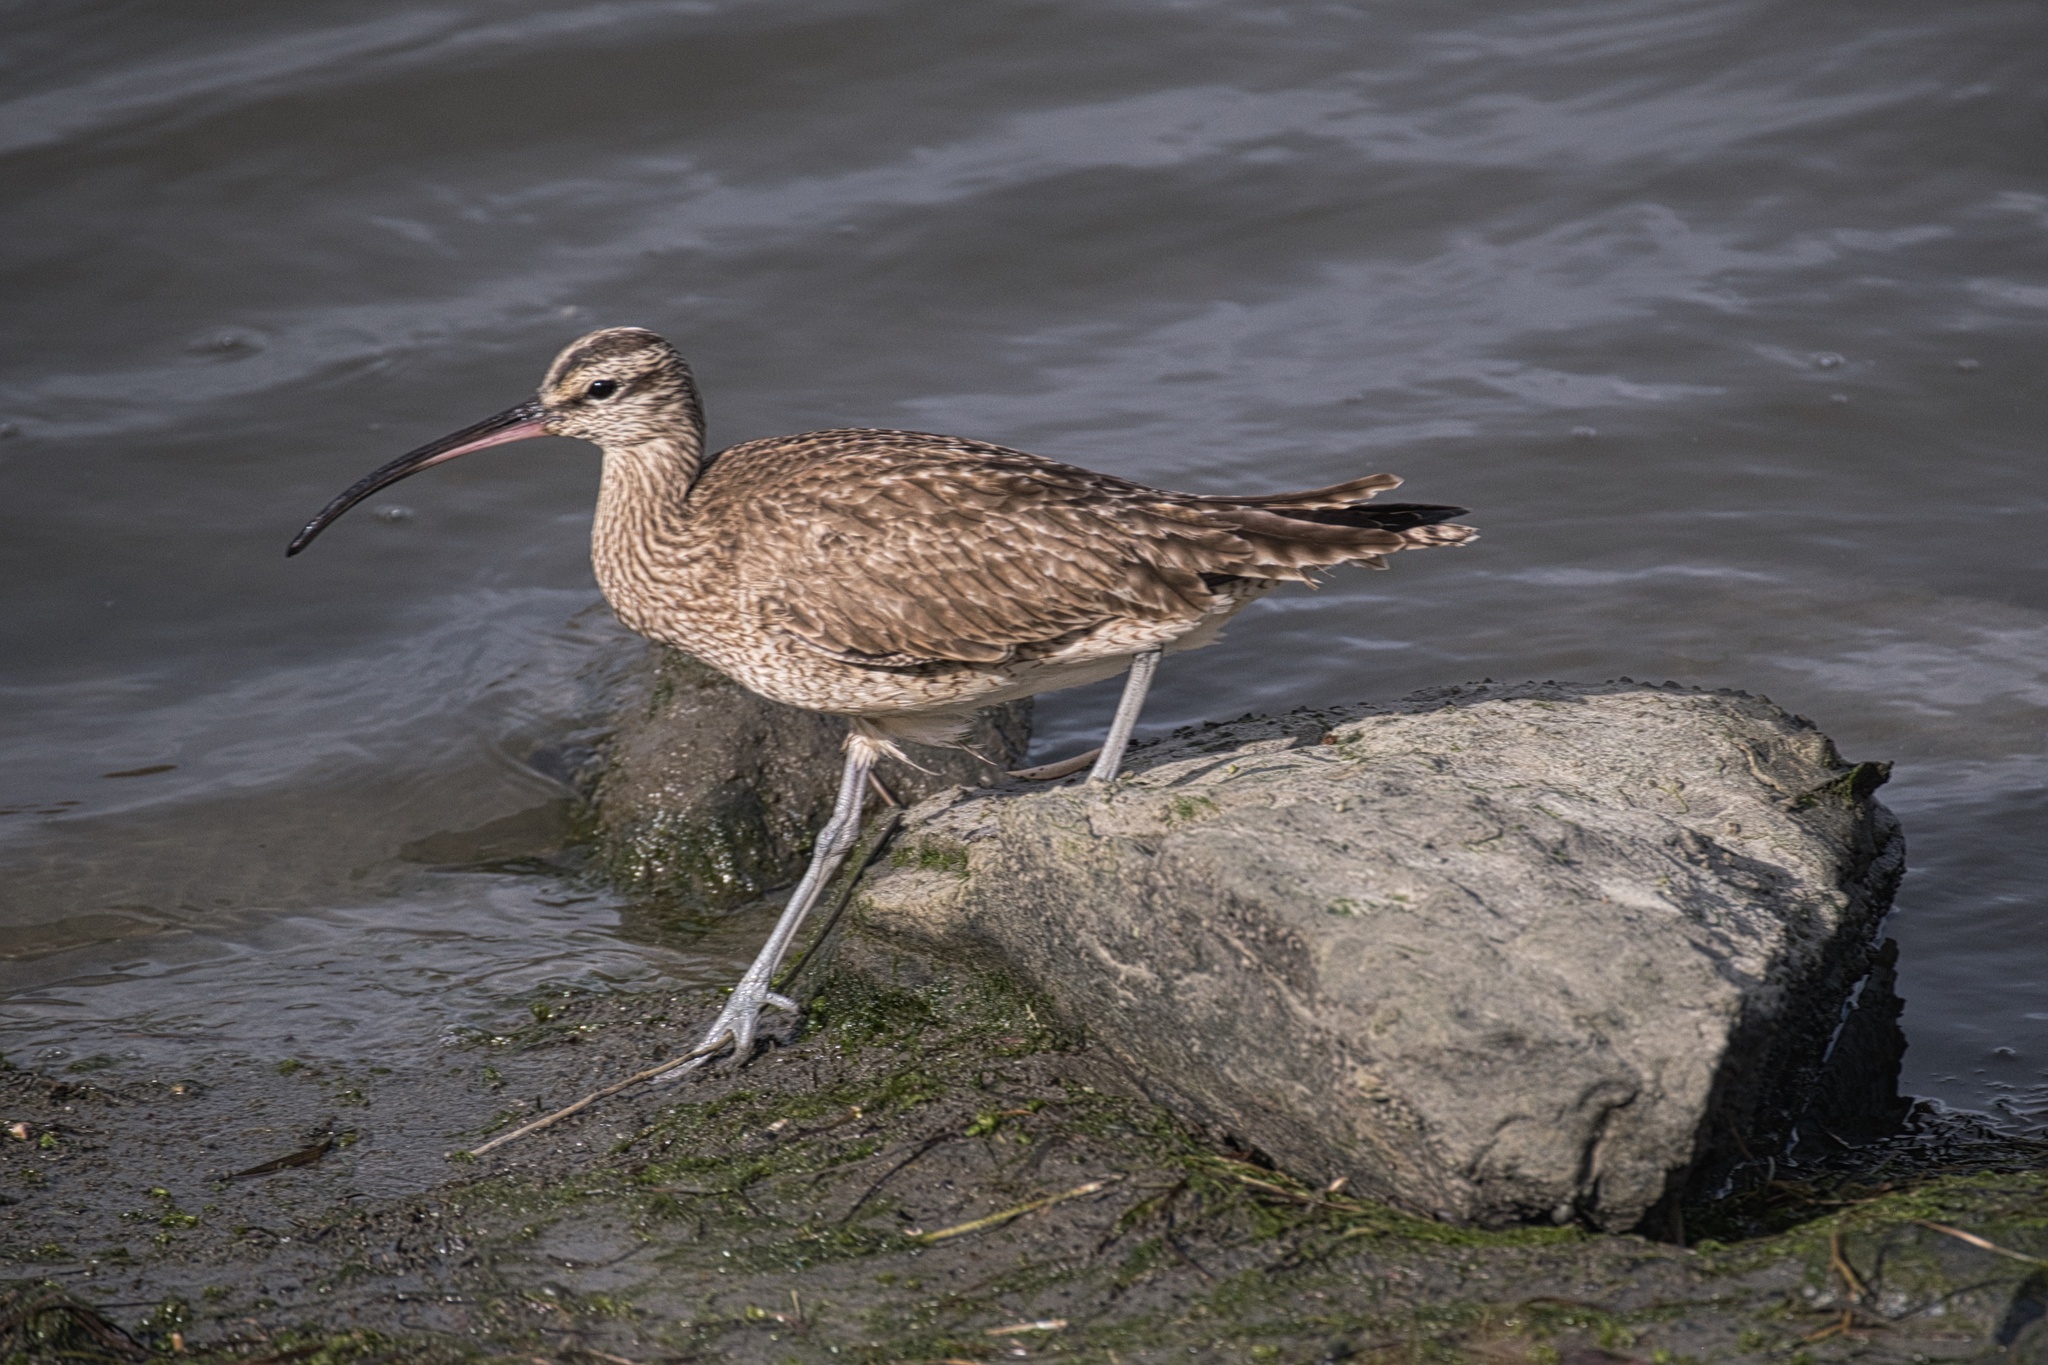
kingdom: Animalia
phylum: Chordata
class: Aves
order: Charadriiformes
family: Scolopacidae
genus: Numenius
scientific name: Numenius phaeopus
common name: Whimbrel
